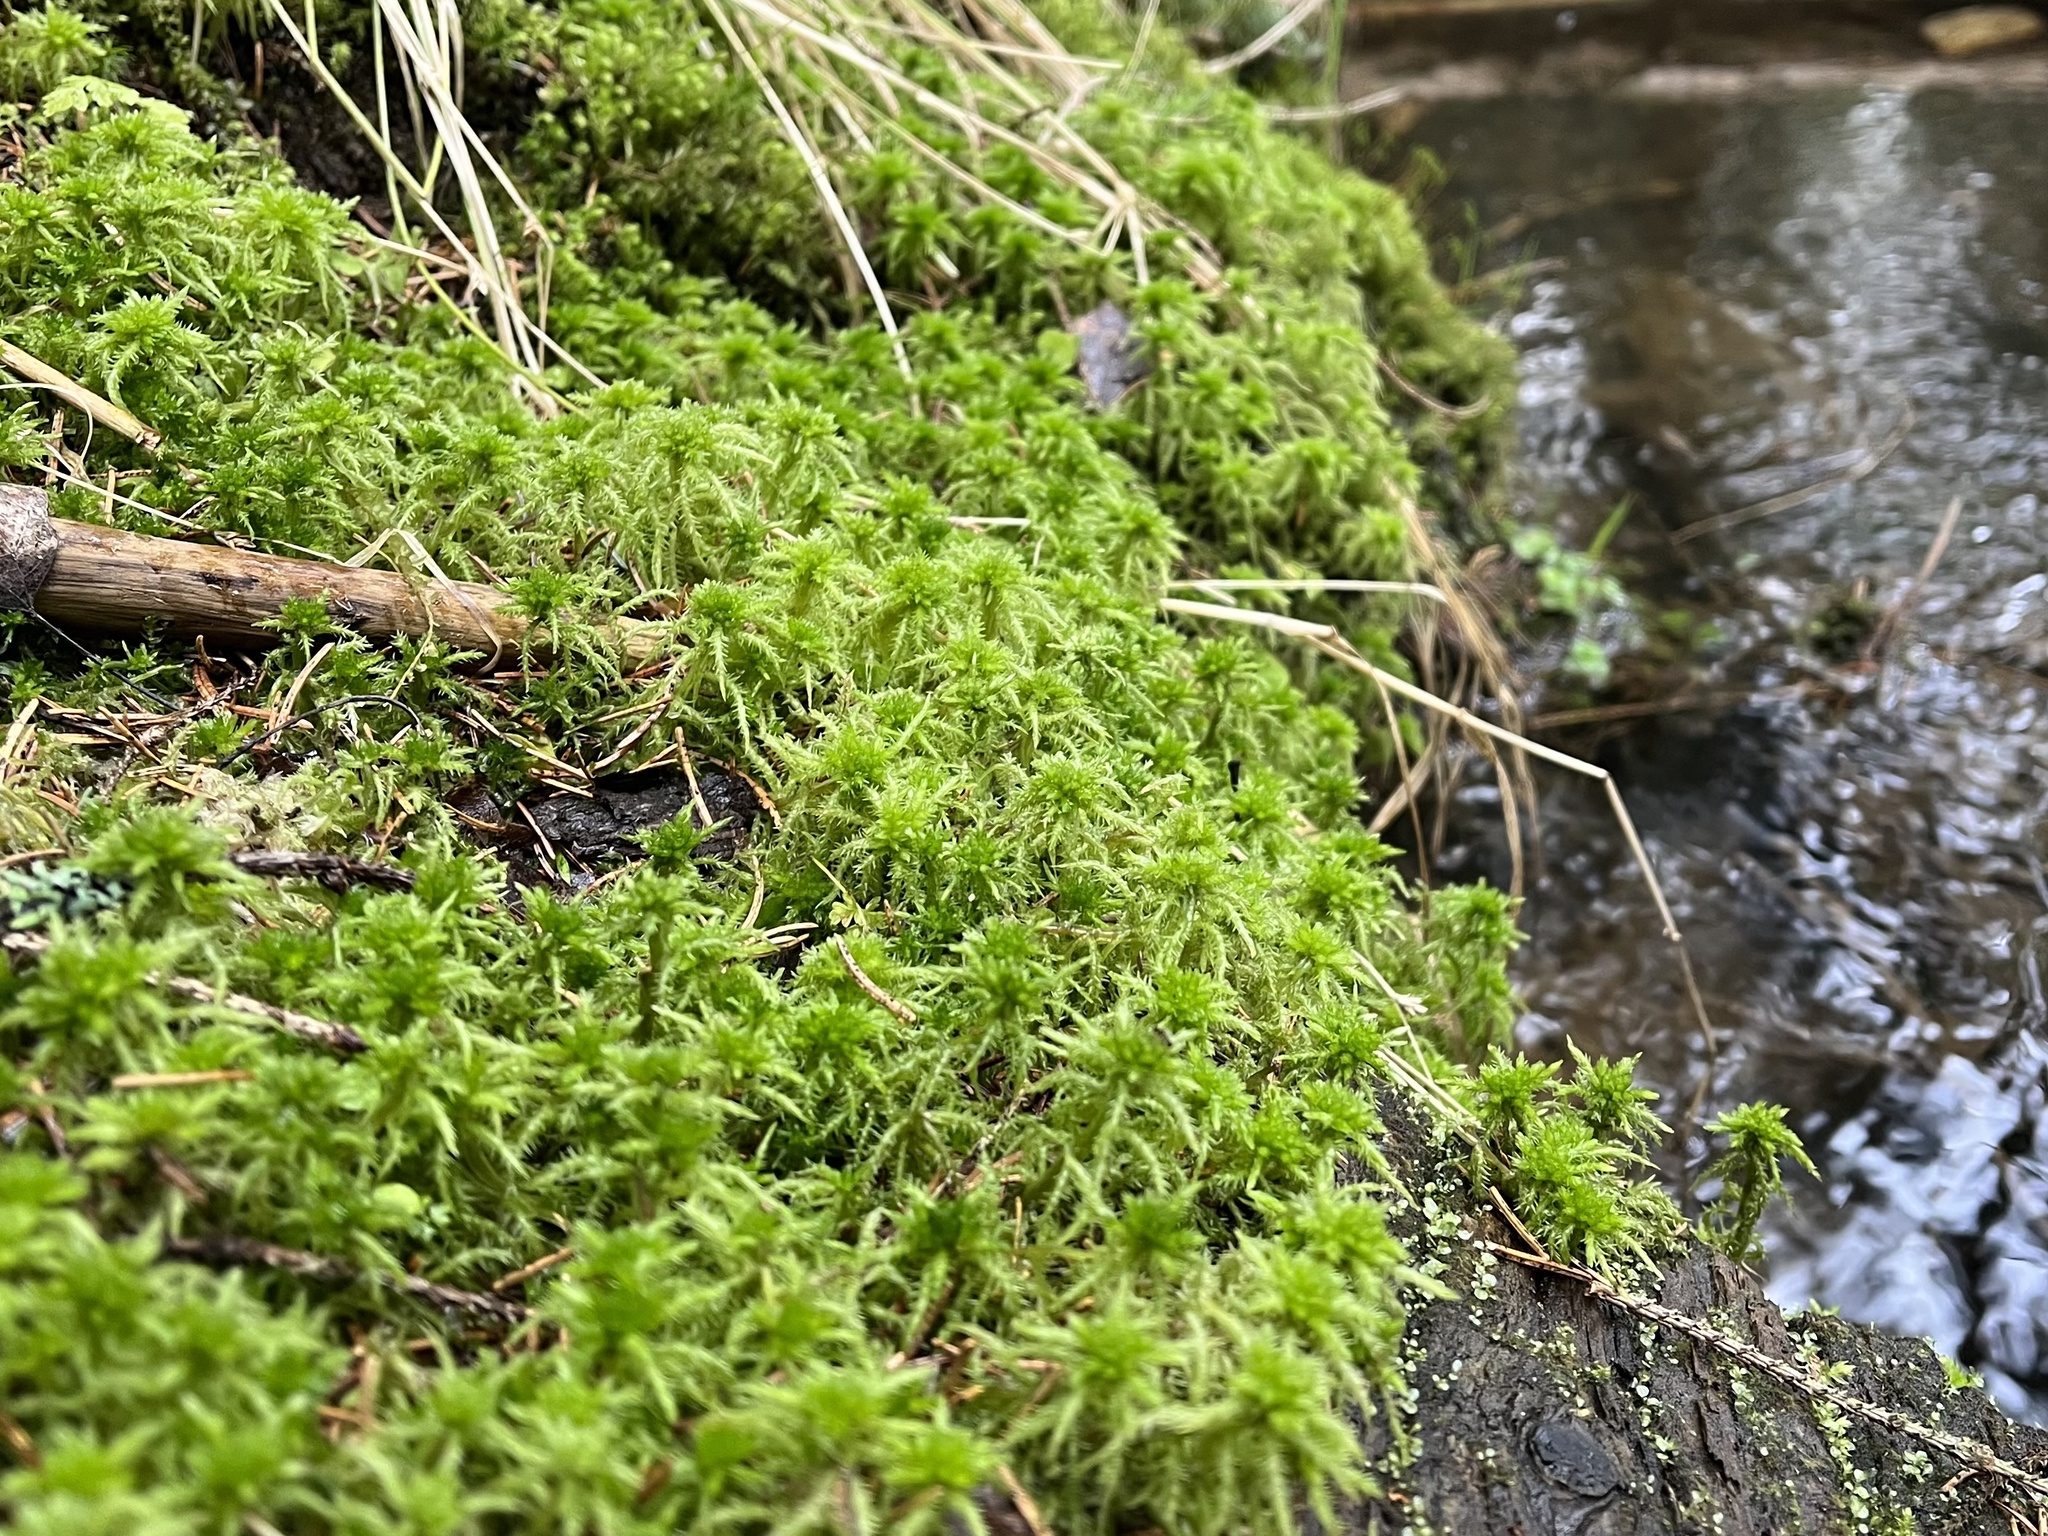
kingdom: Plantae
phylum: Bryophyta
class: Sphagnopsida
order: Sphagnales
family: Sphagnaceae
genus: Sphagnum
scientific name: Sphagnum squarrosum
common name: Shaggy peat moss
